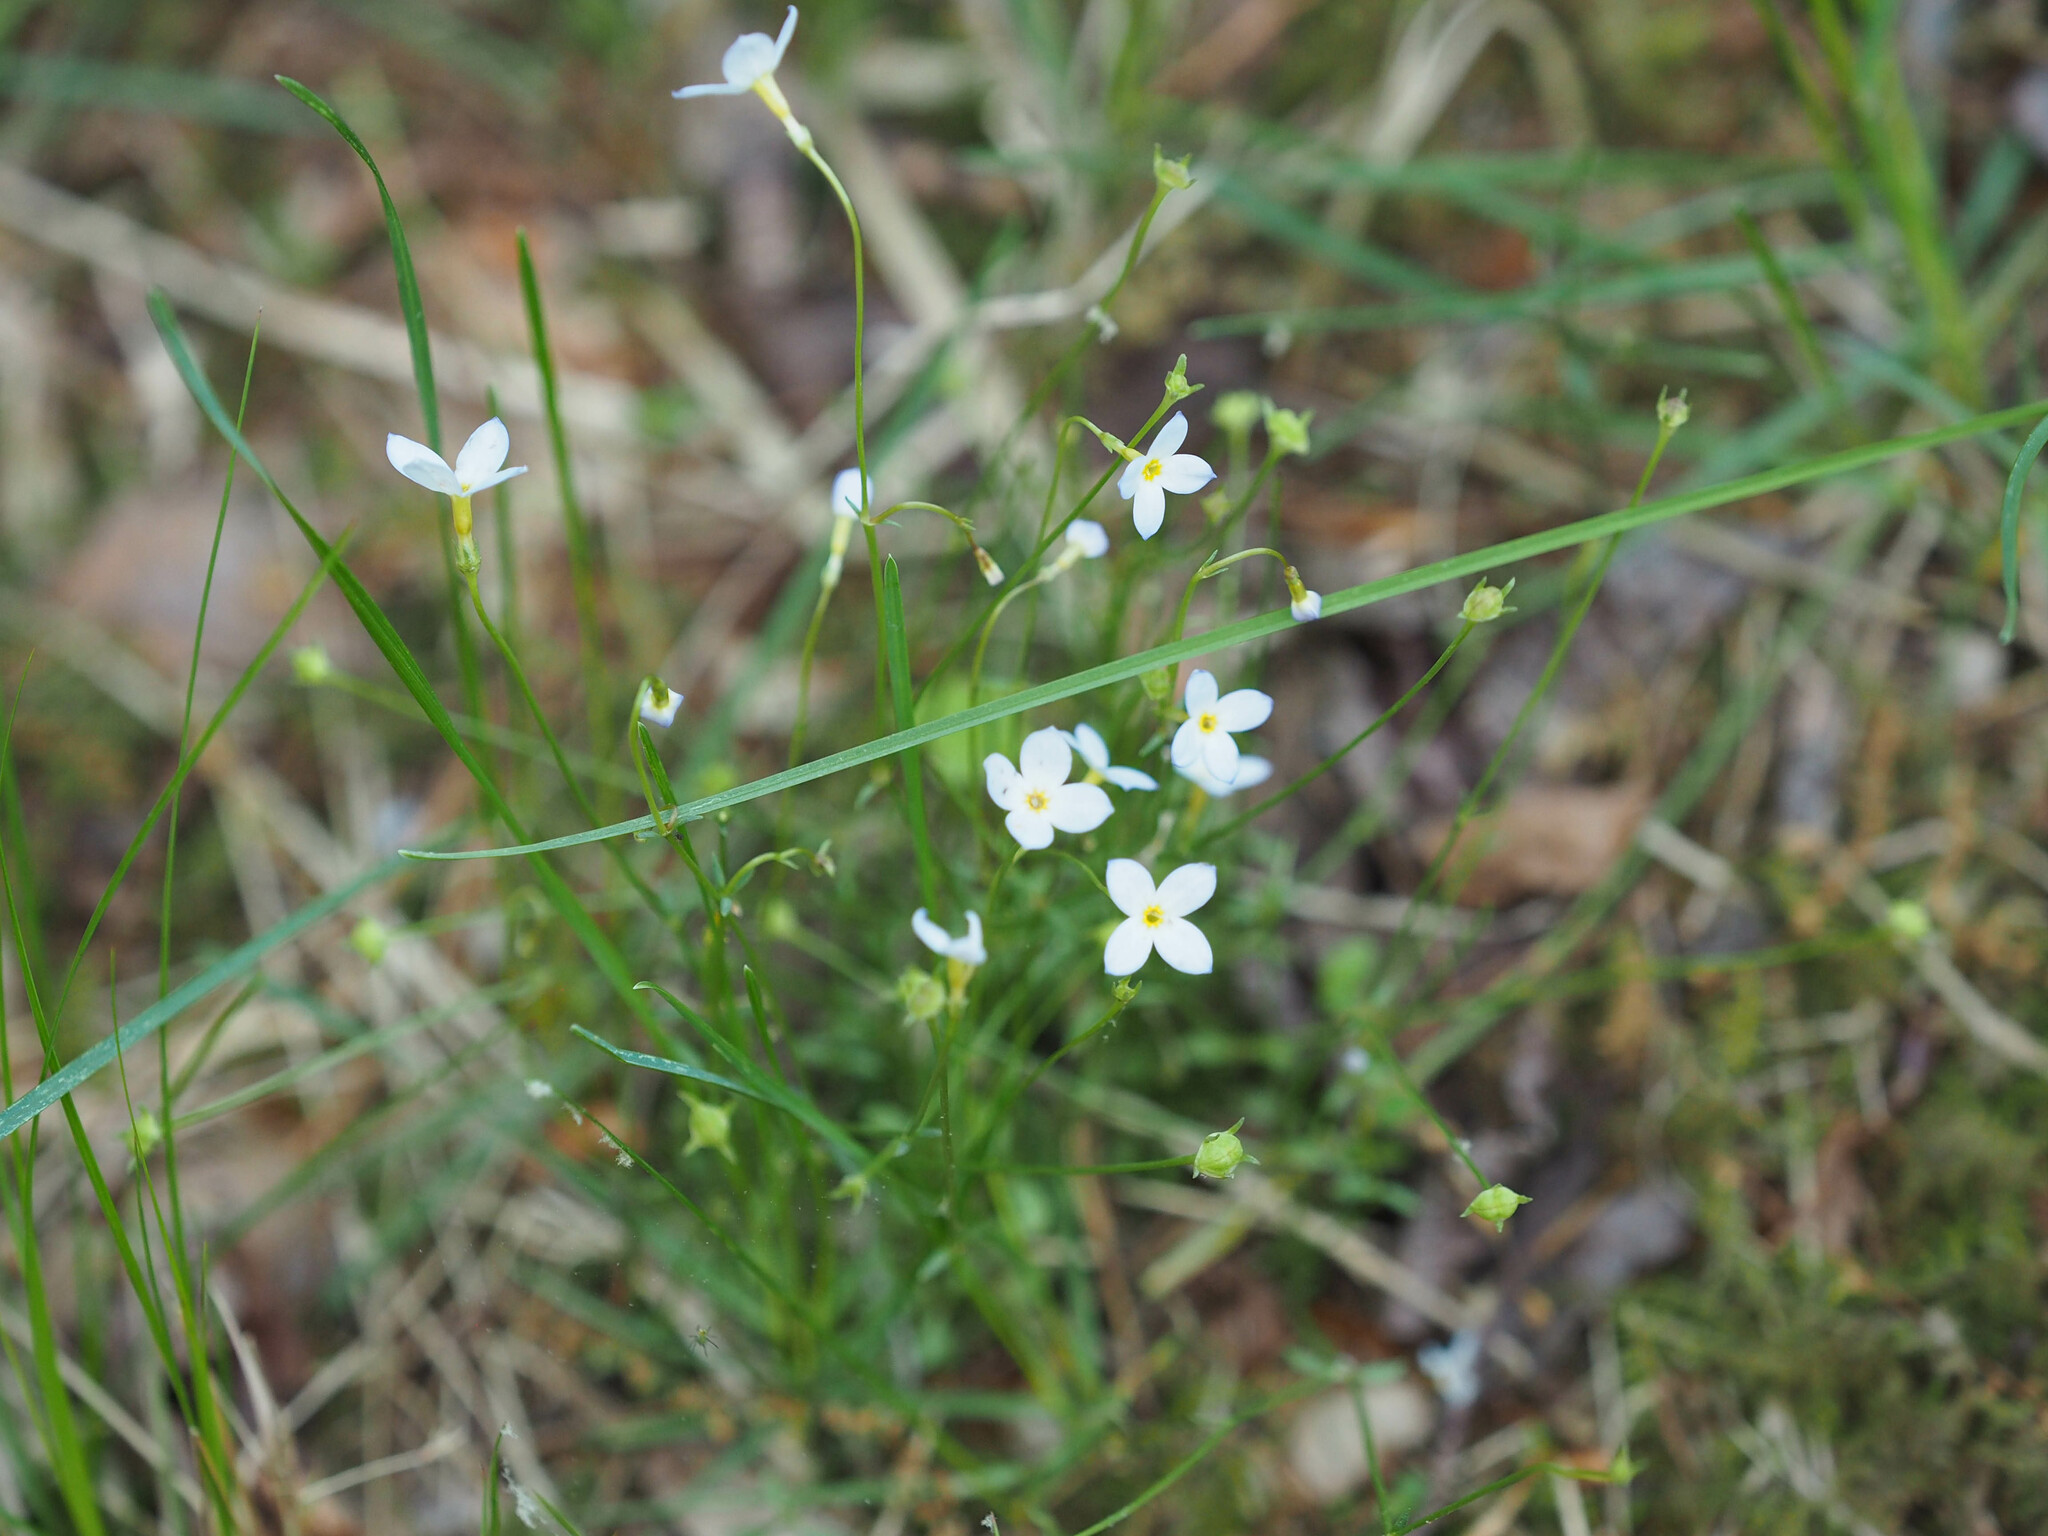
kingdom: Plantae
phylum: Tracheophyta
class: Magnoliopsida
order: Gentianales
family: Rubiaceae
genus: Houstonia
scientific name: Houstonia caerulea
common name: Bluets
